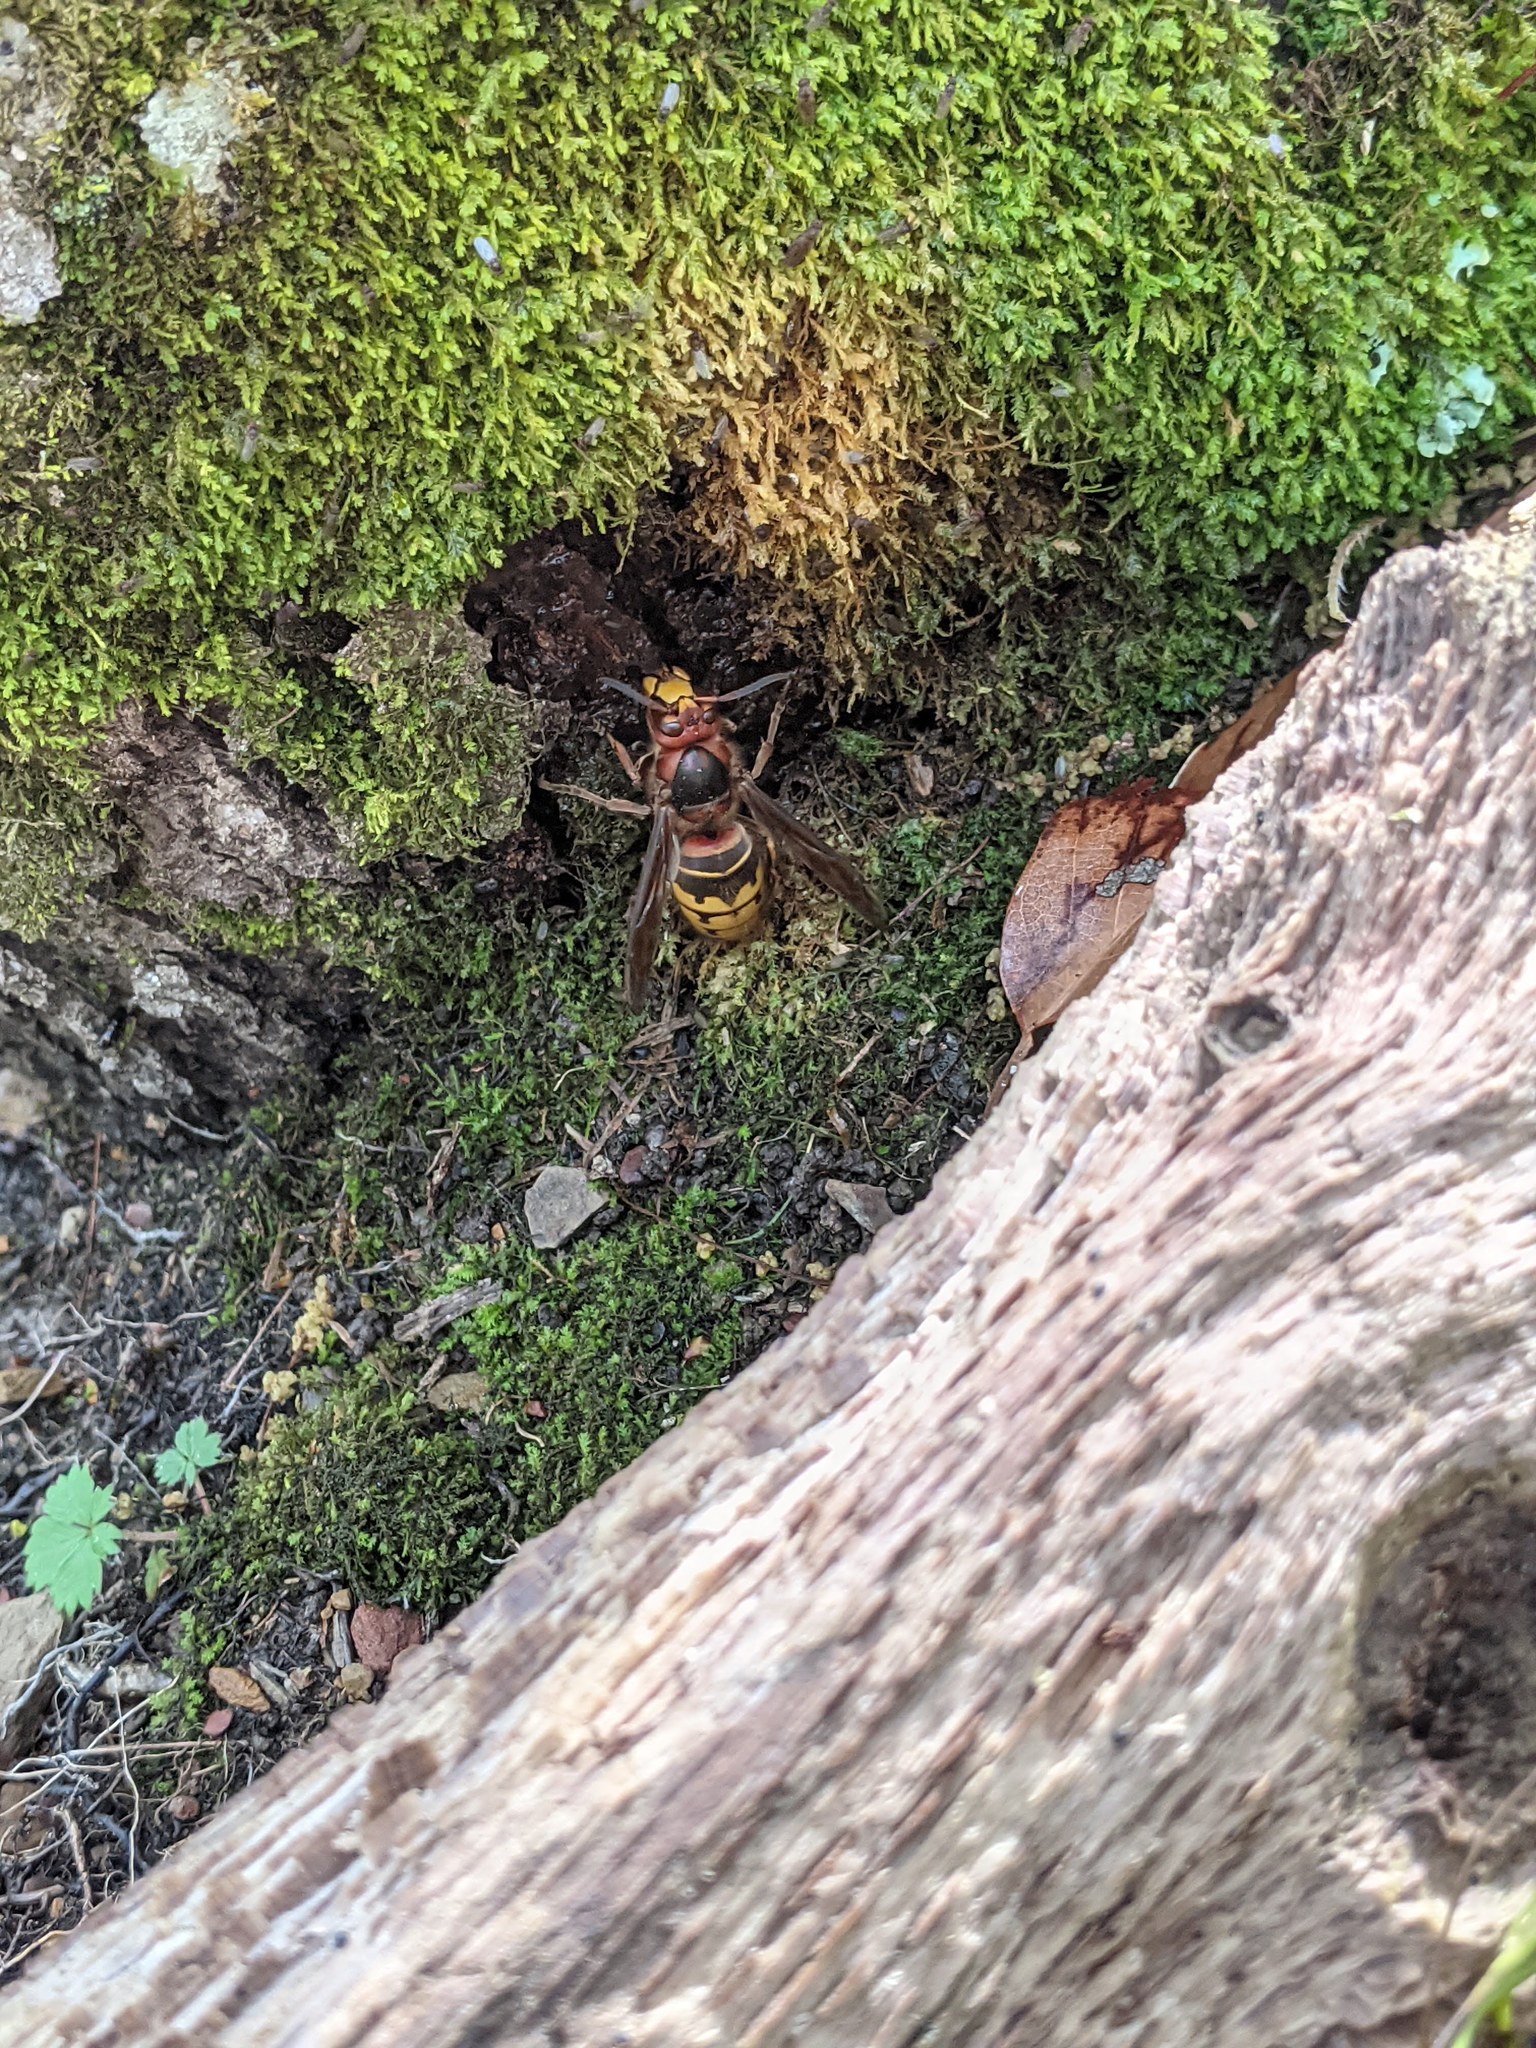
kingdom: Animalia
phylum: Arthropoda
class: Insecta
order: Hymenoptera
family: Vespidae
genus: Vespa
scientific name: Vespa crabro
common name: Hornet
